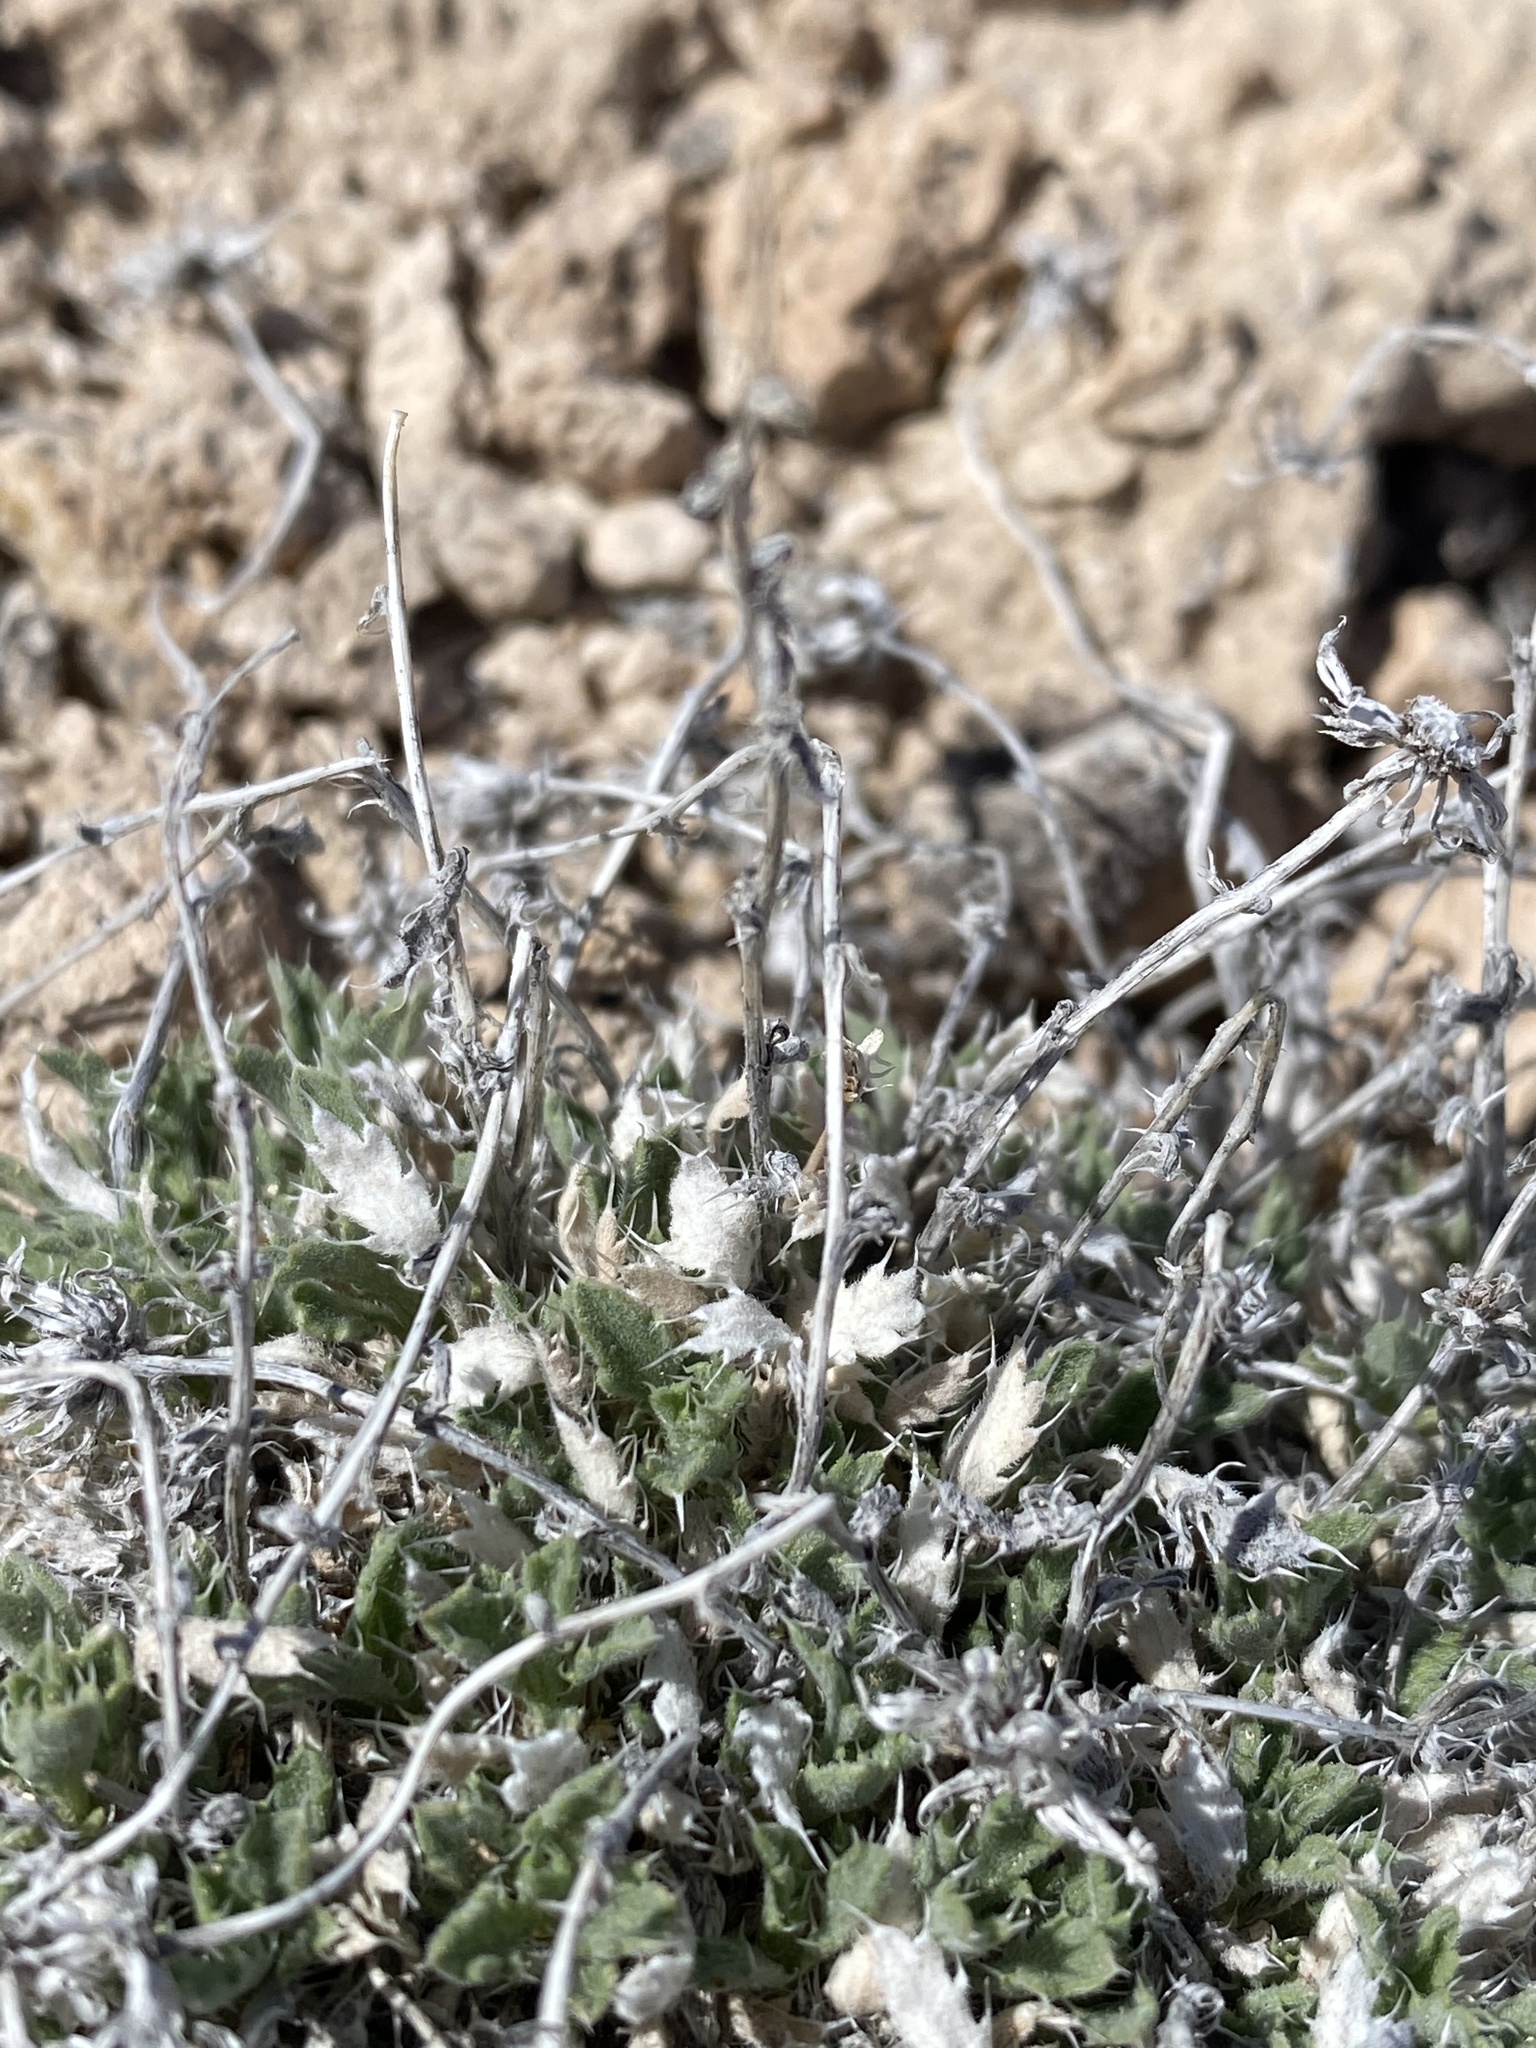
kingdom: Plantae
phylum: Tracheophyta
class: Magnoliopsida
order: Asterales
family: Asteraceae
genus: Xanthisma
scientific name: Xanthisma grindelioides
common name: Goldenweed
